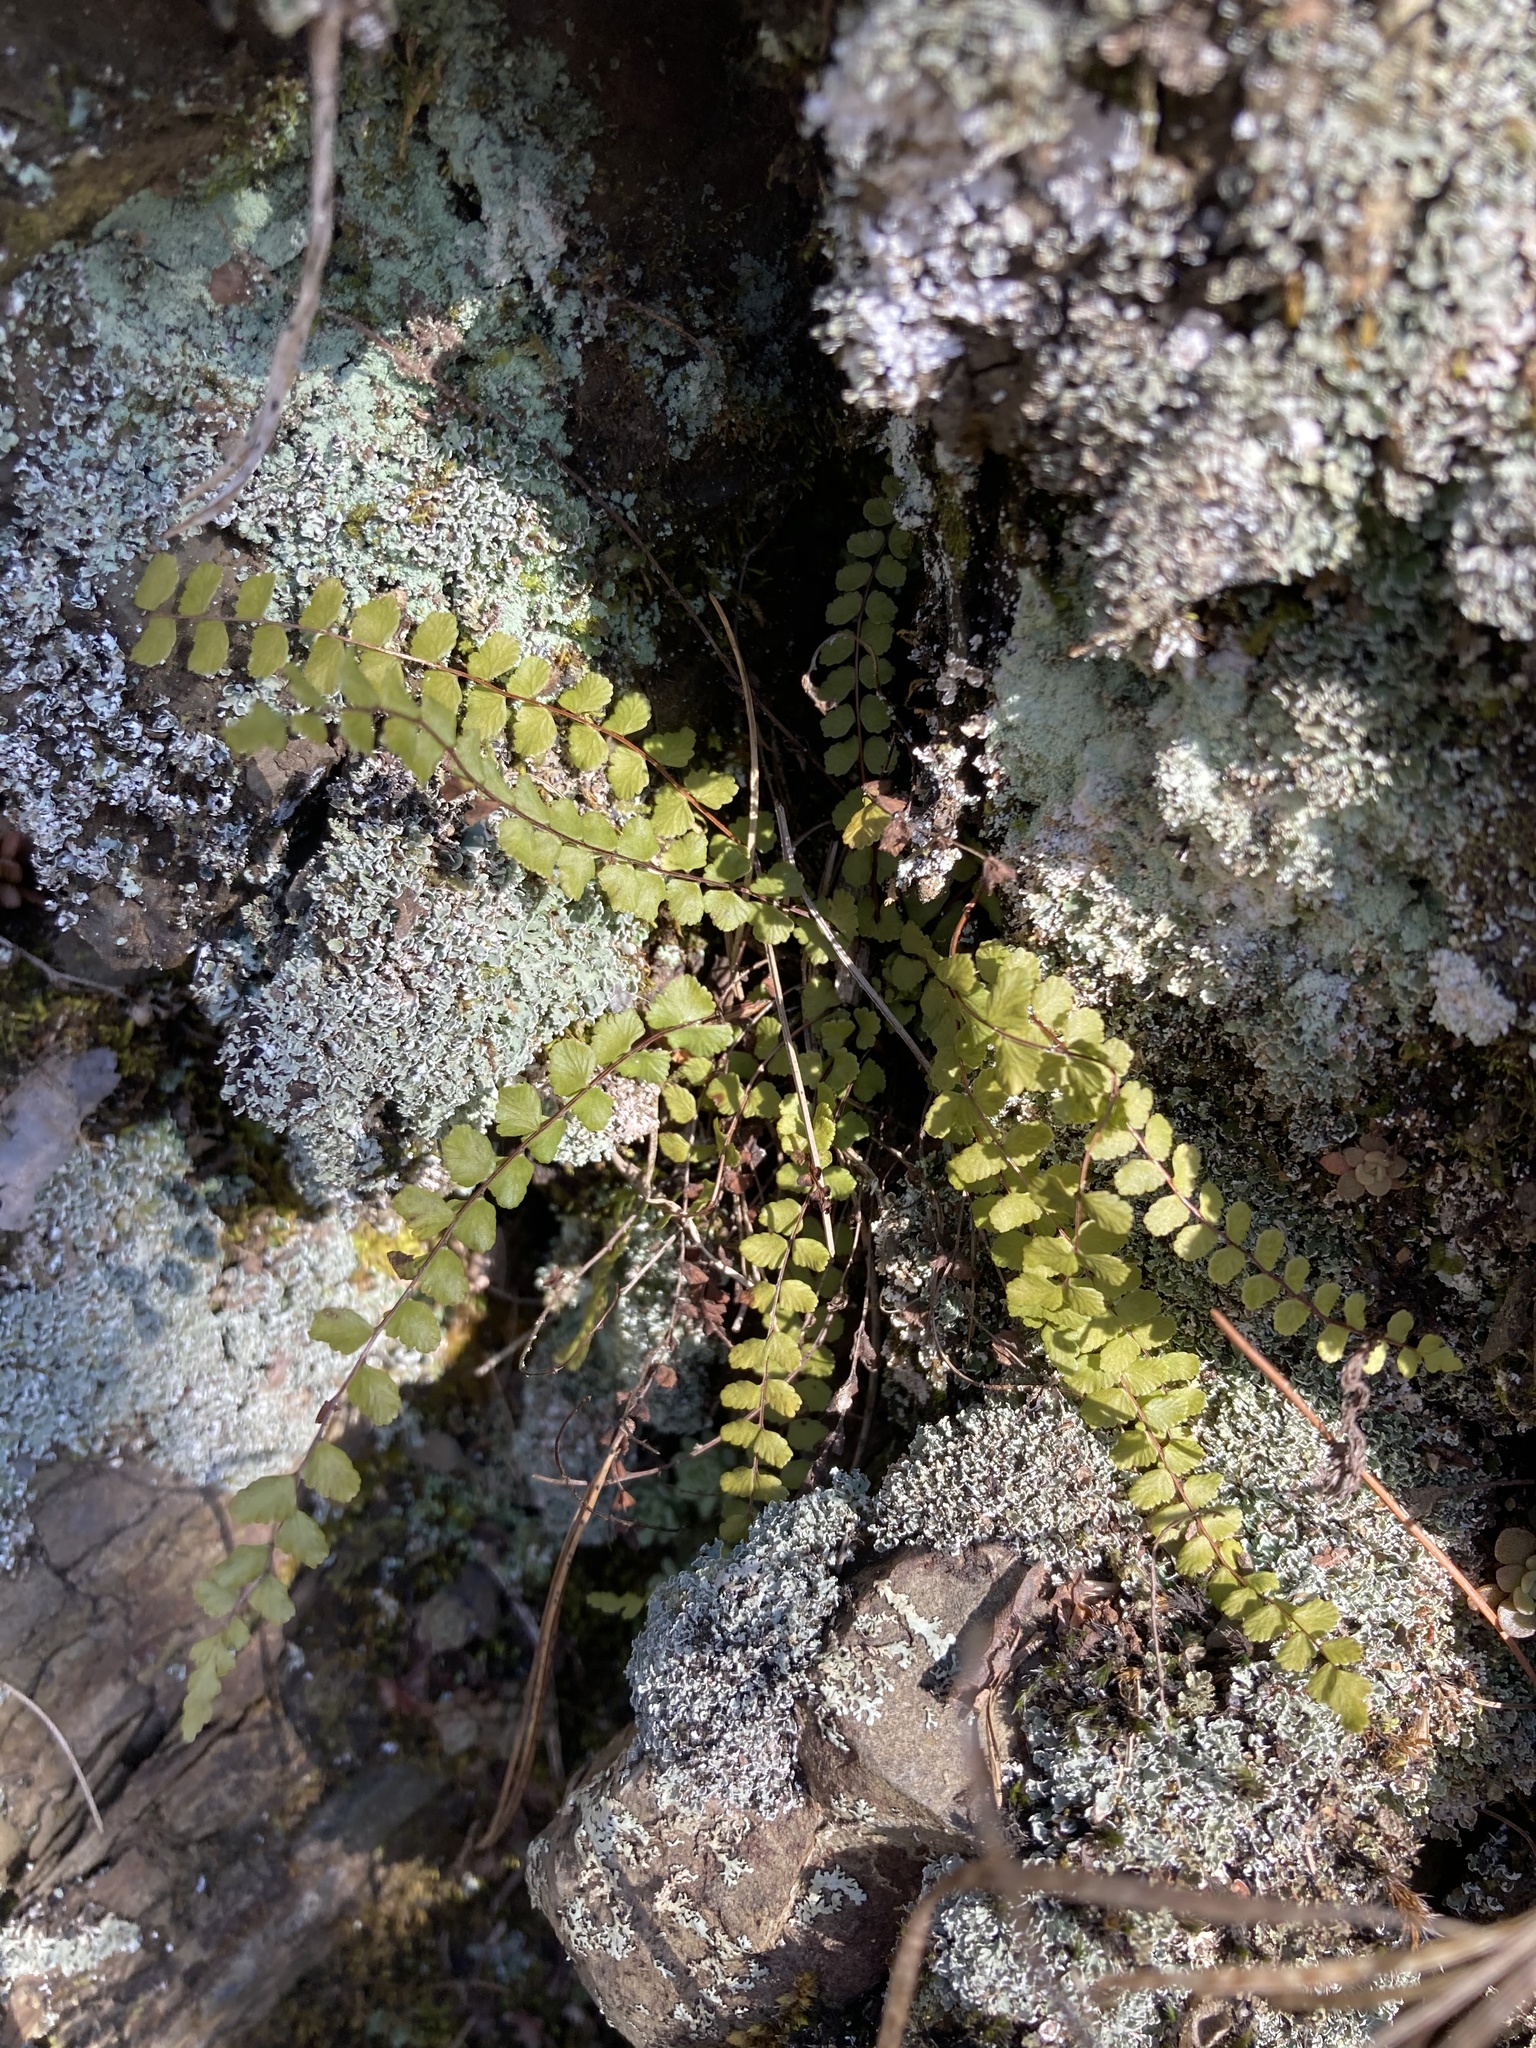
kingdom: Plantae
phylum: Tracheophyta
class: Polypodiopsida
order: Polypodiales
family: Aspleniaceae
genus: Asplenium
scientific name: Asplenium trichomanes
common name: Maidenhair spleenwort
